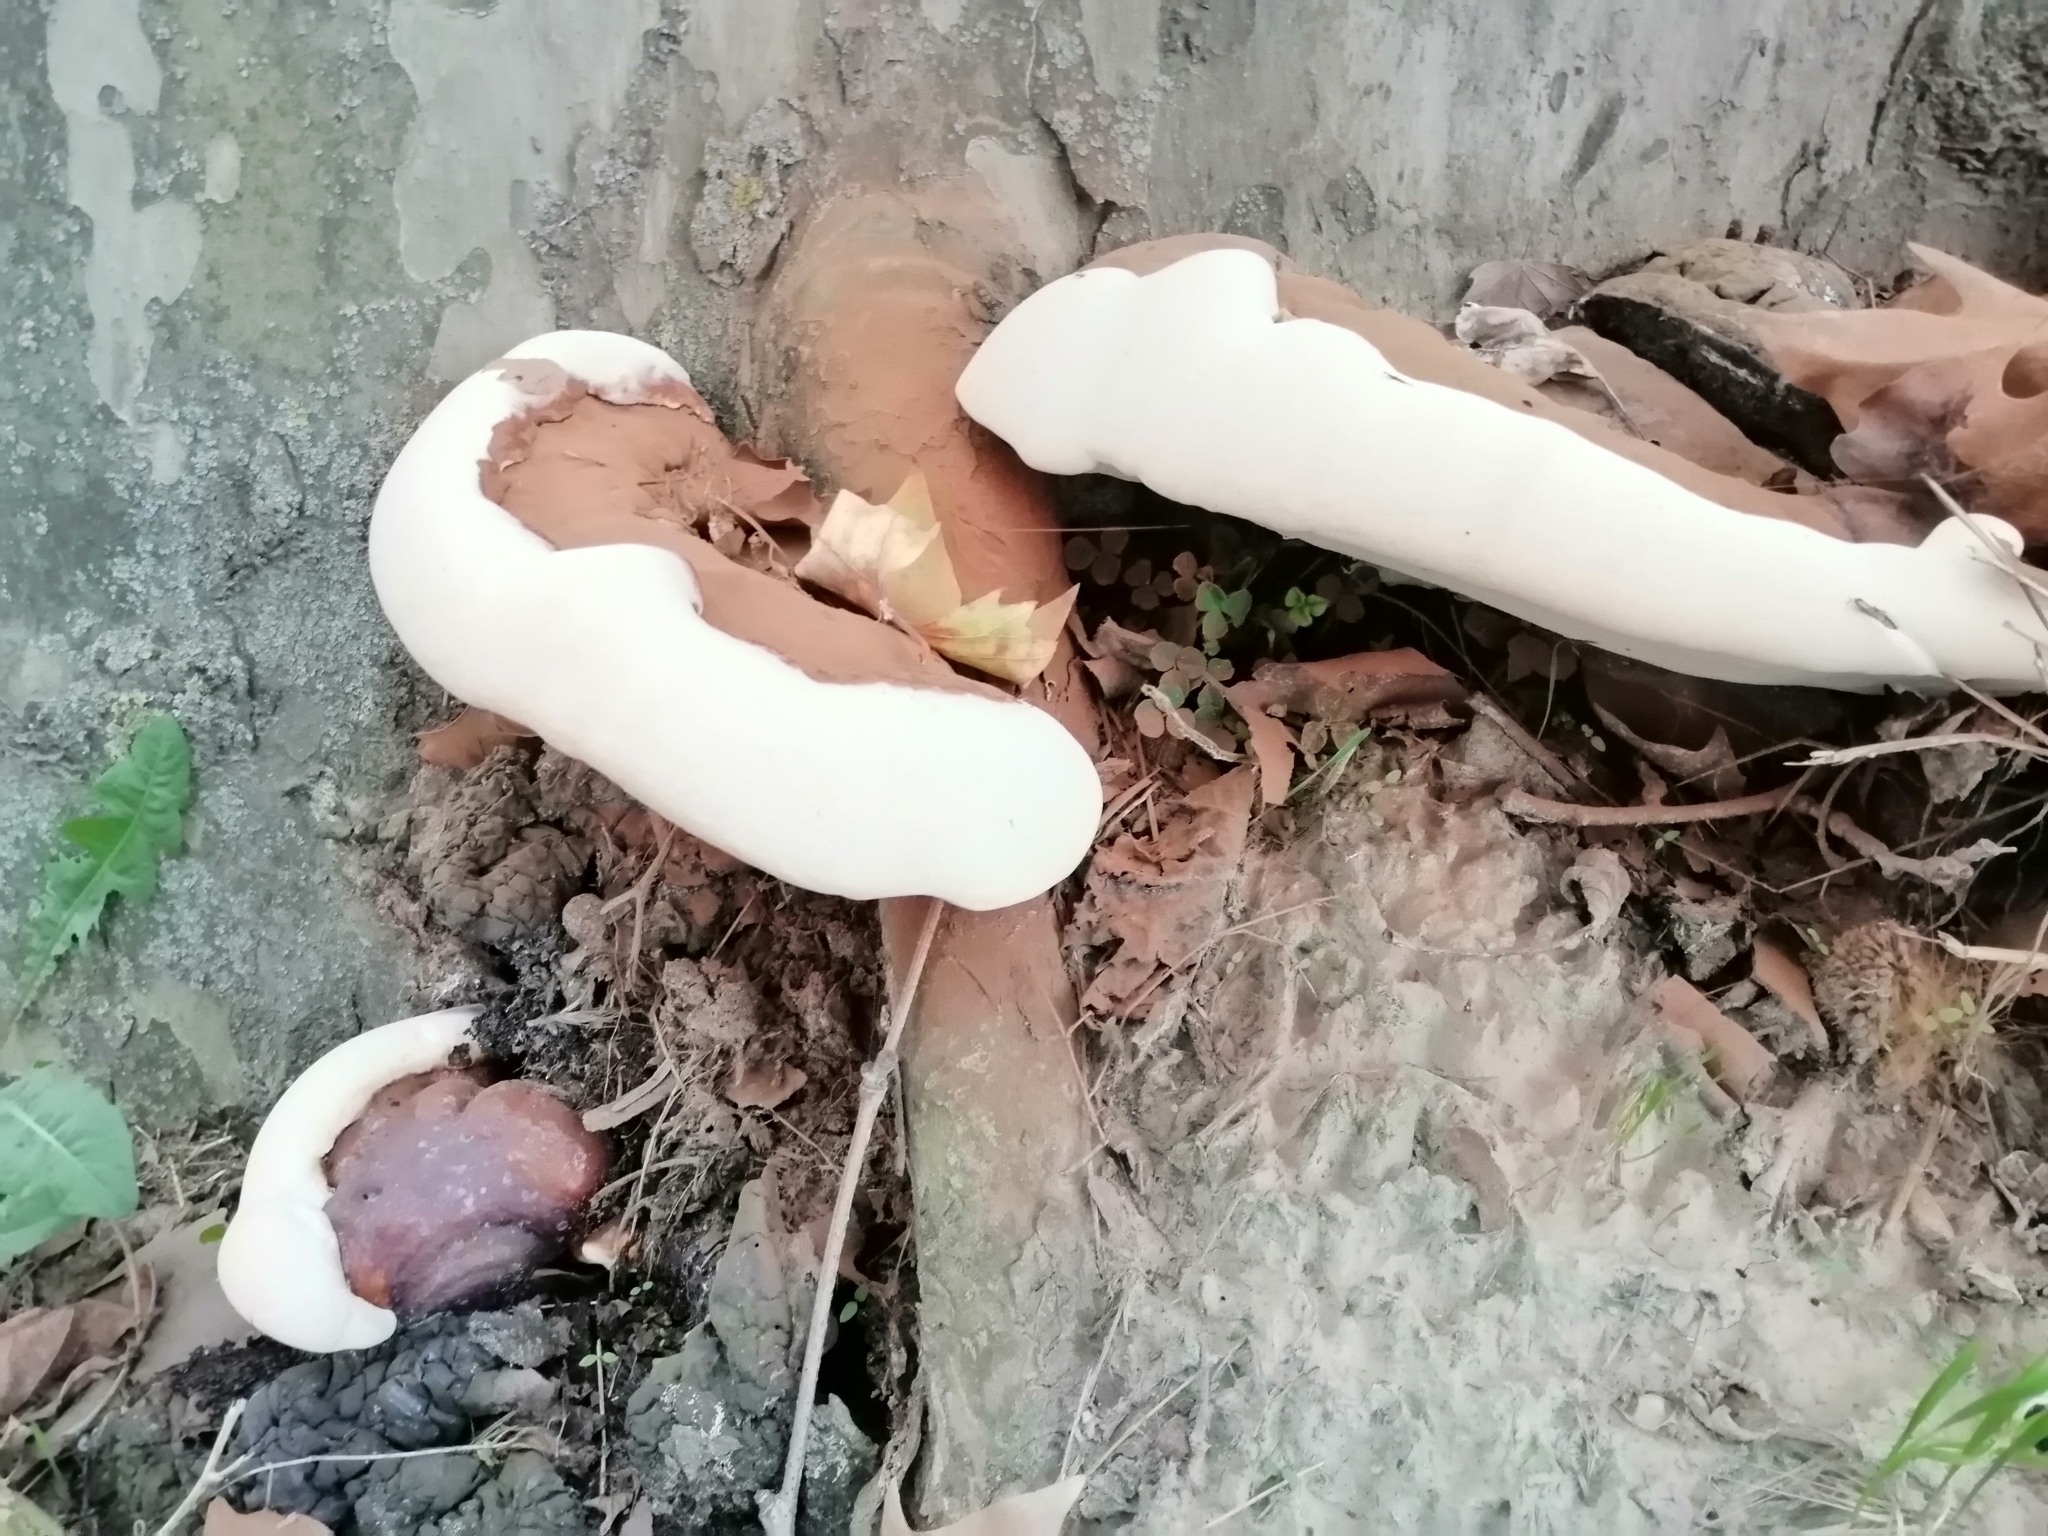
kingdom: Fungi
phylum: Basidiomycota
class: Agaricomycetes
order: Polyporales
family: Polyporaceae
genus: Ganoderma
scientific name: Ganoderma resinaceum
